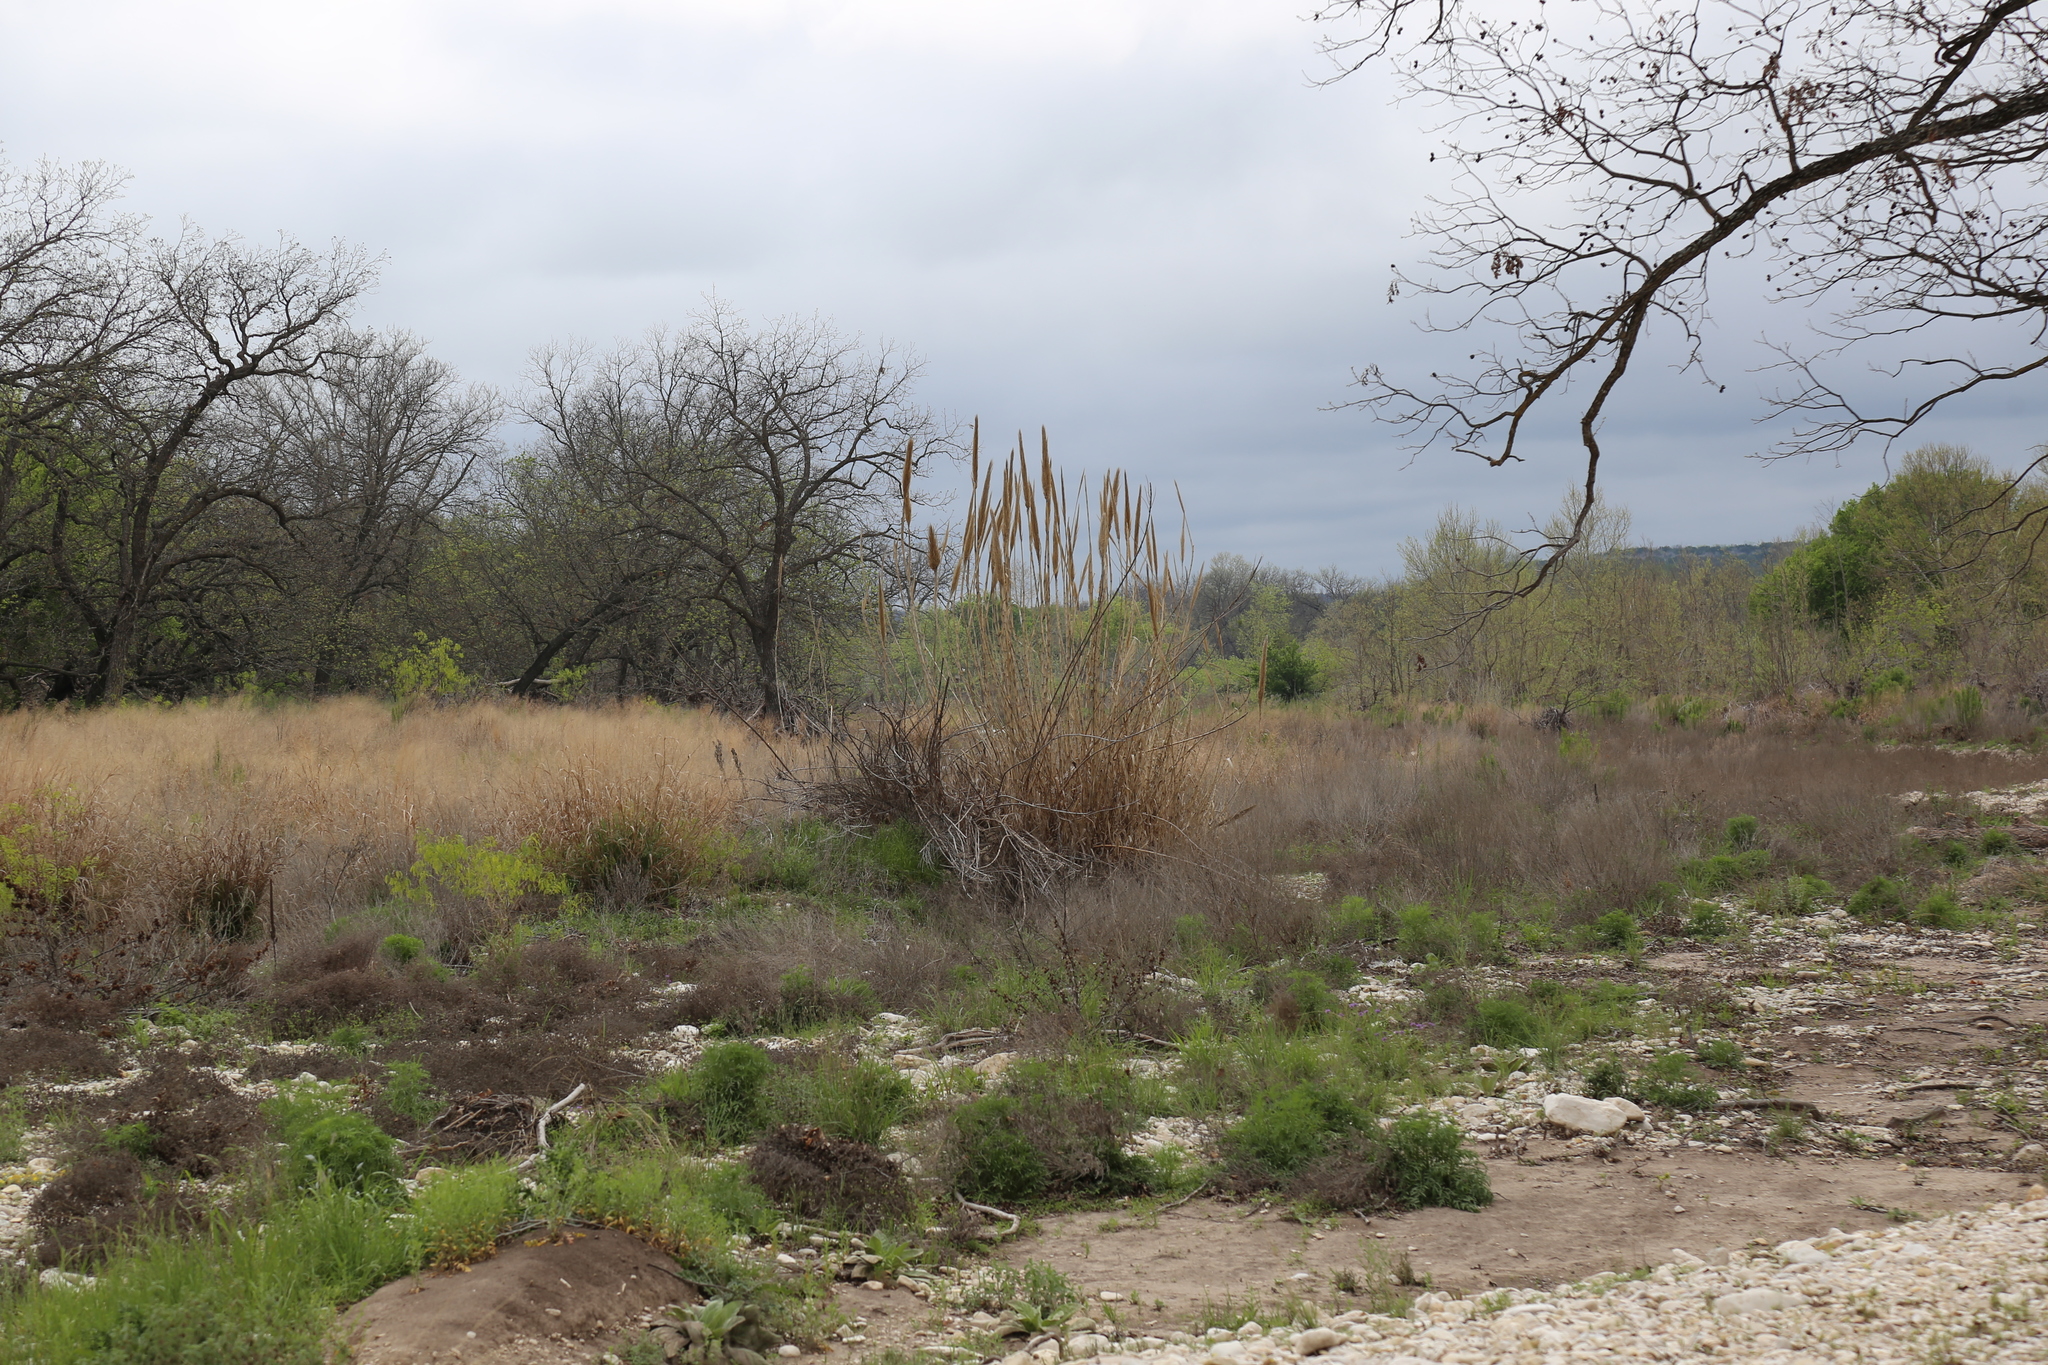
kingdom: Plantae
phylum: Tracheophyta
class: Liliopsida
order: Poales
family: Poaceae
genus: Arundo
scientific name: Arundo donax
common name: Giant reed
